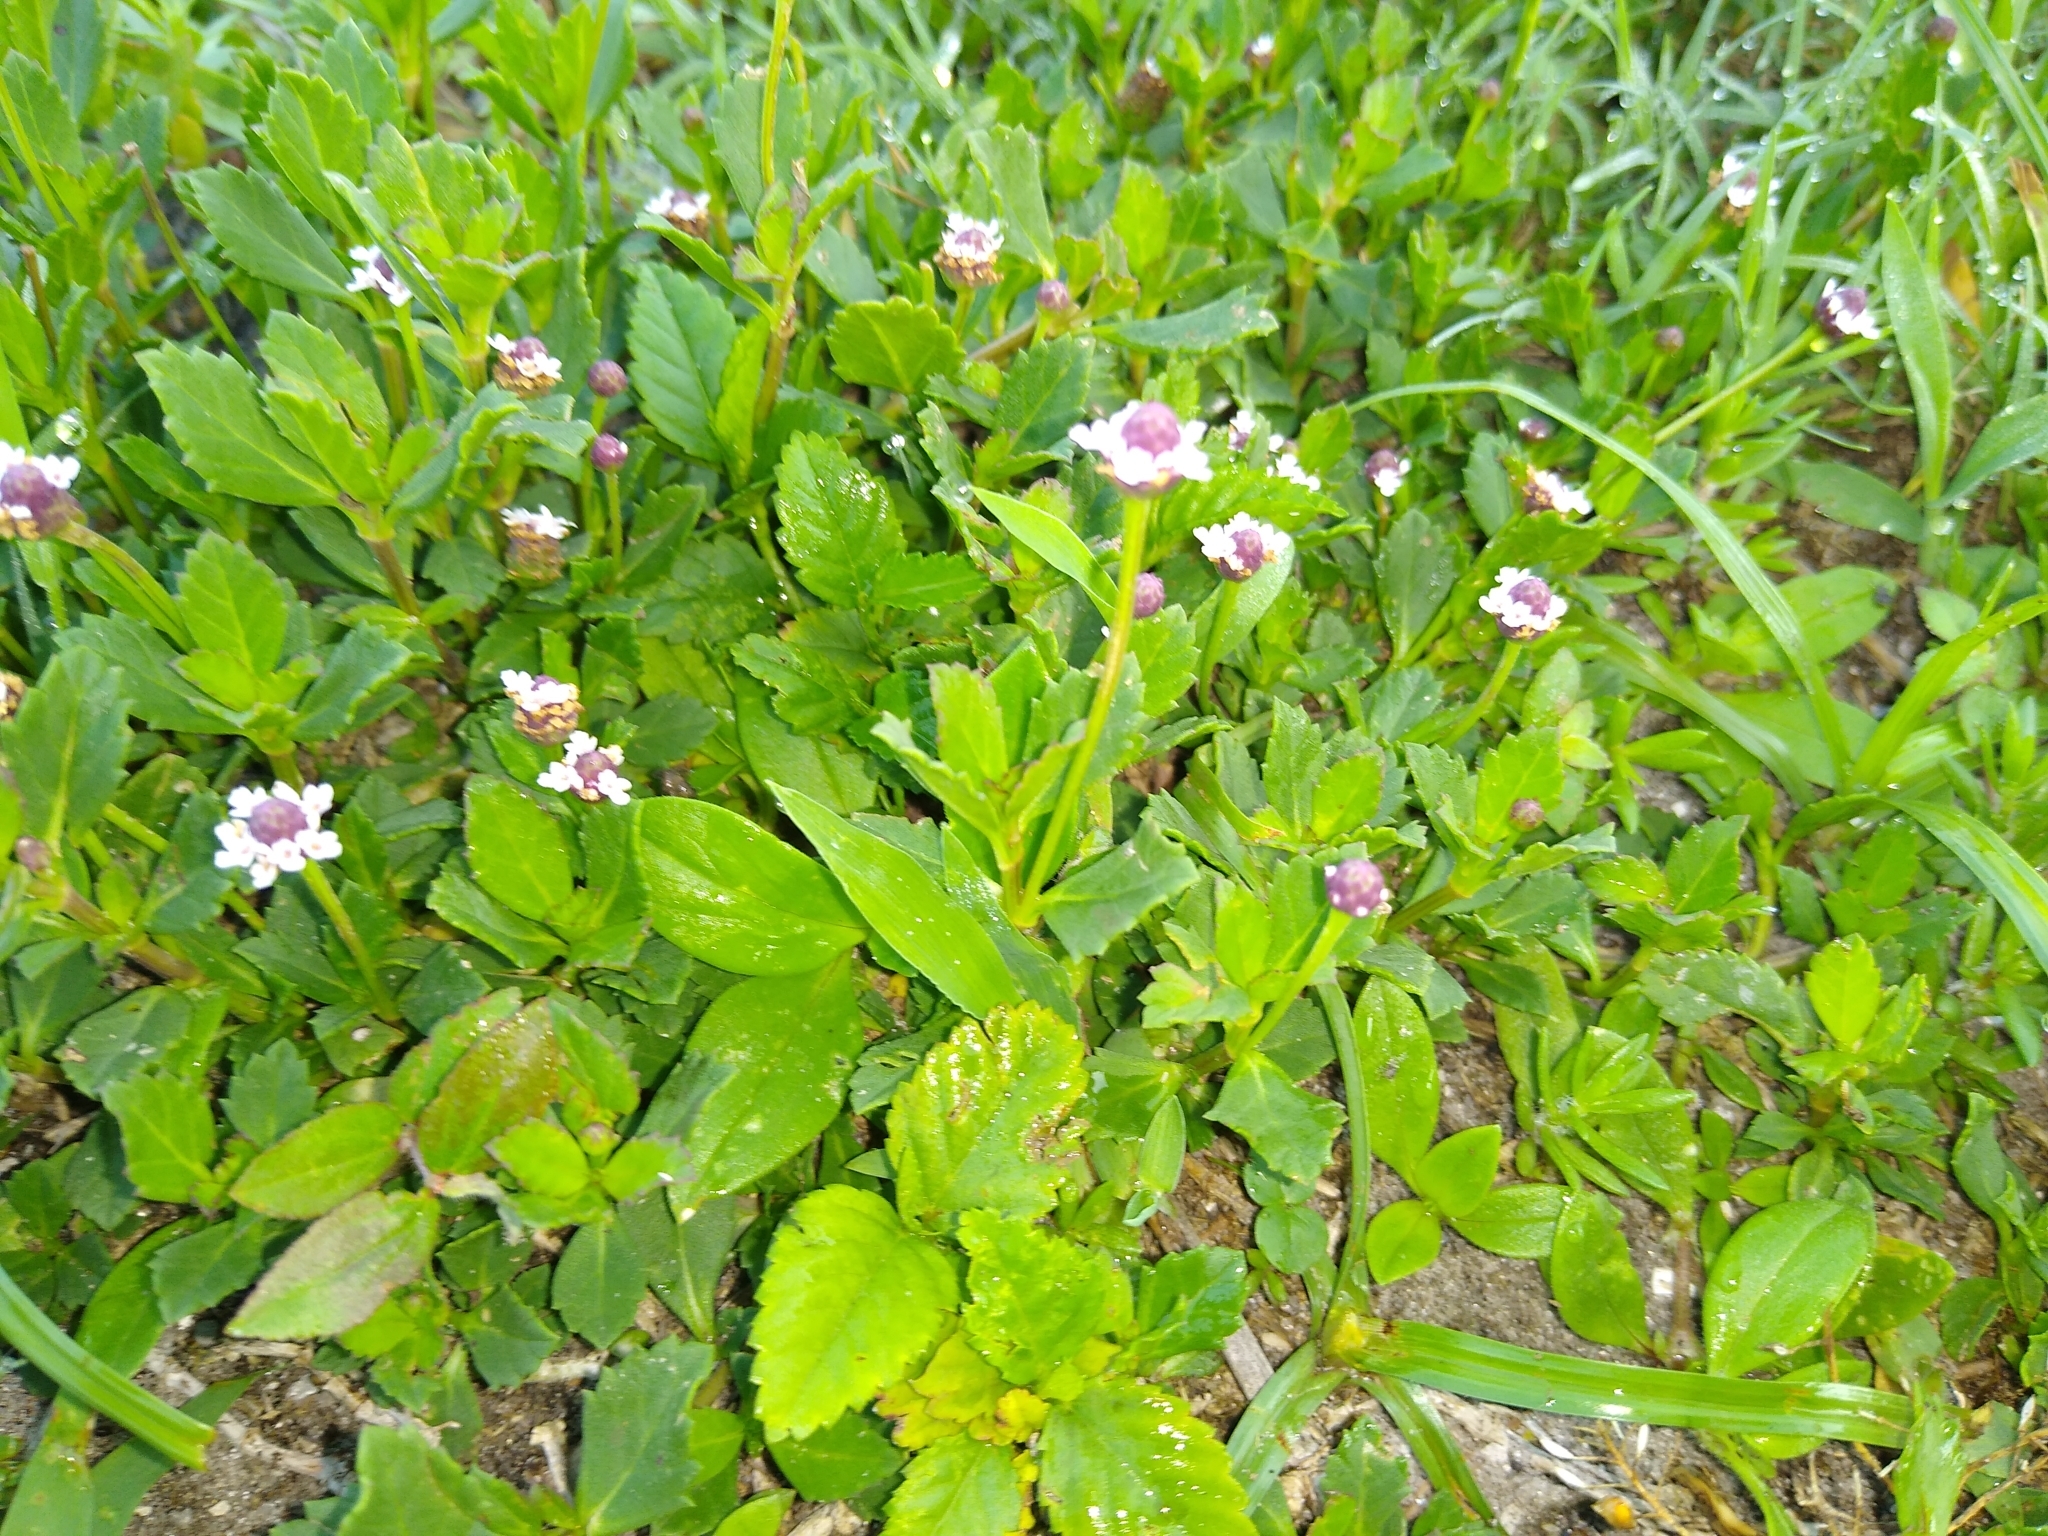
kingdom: Plantae
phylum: Tracheophyta
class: Magnoliopsida
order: Lamiales
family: Verbenaceae
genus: Phyla
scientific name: Phyla nodiflora
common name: Frogfruit
